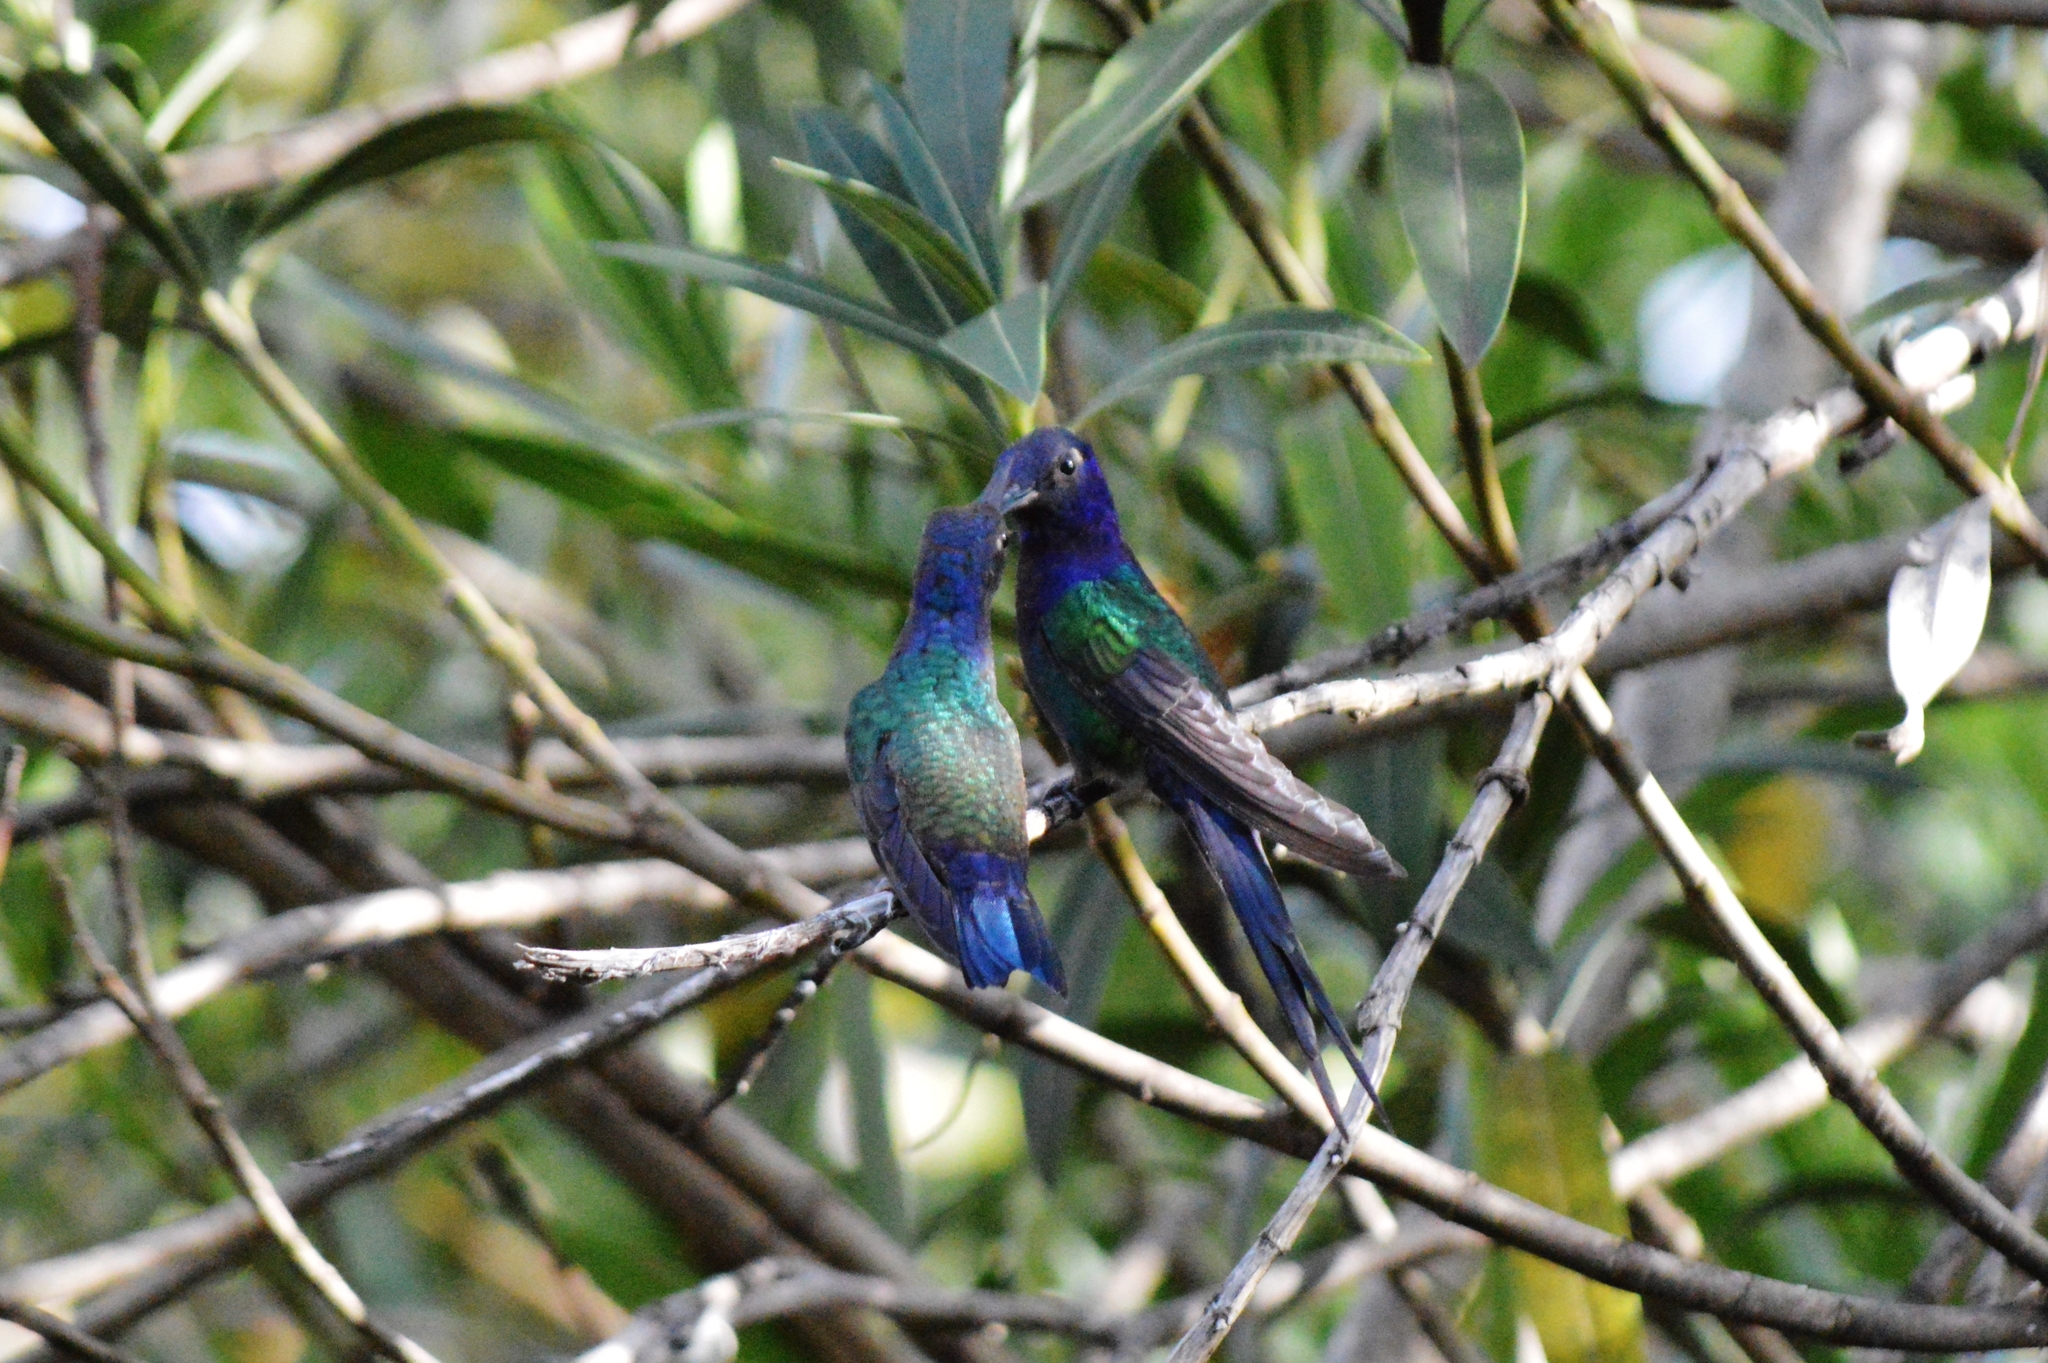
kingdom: Animalia
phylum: Chordata
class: Aves
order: Apodiformes
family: Trochilidae
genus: Eupetomena
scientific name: Eupetomena macroura
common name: Swallow-tailed hummingbird
